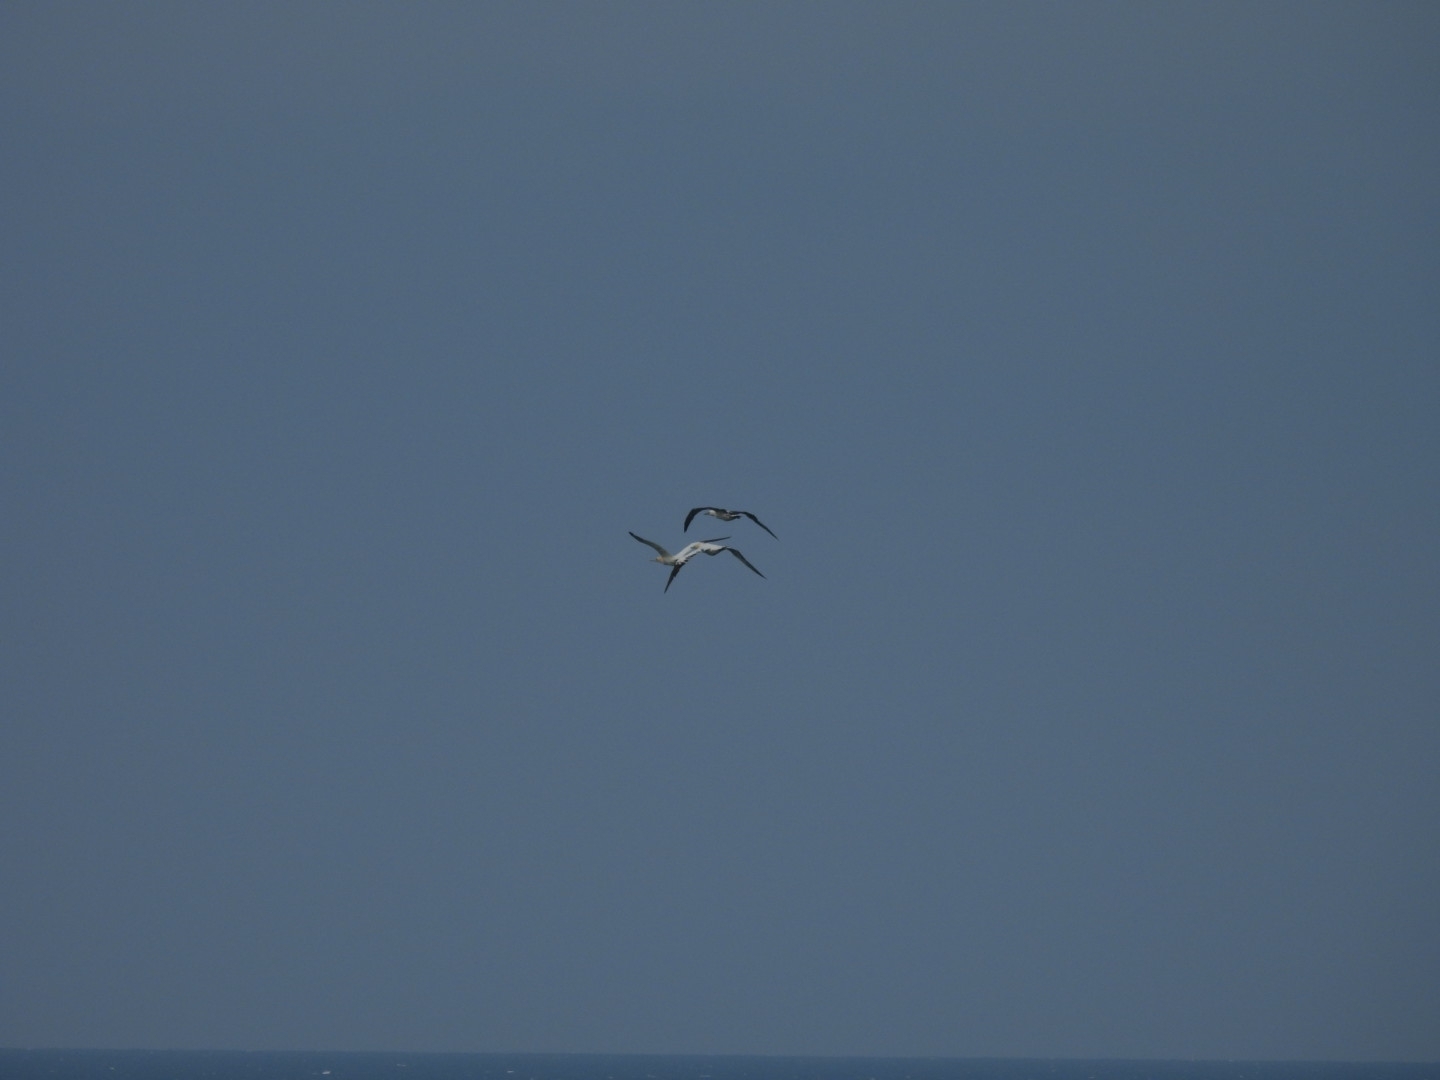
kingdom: Animalia
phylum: Chordata
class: Aves
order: Suliformes
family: Sulidae
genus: Morus
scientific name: Morus bassanus
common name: Northern gannet
